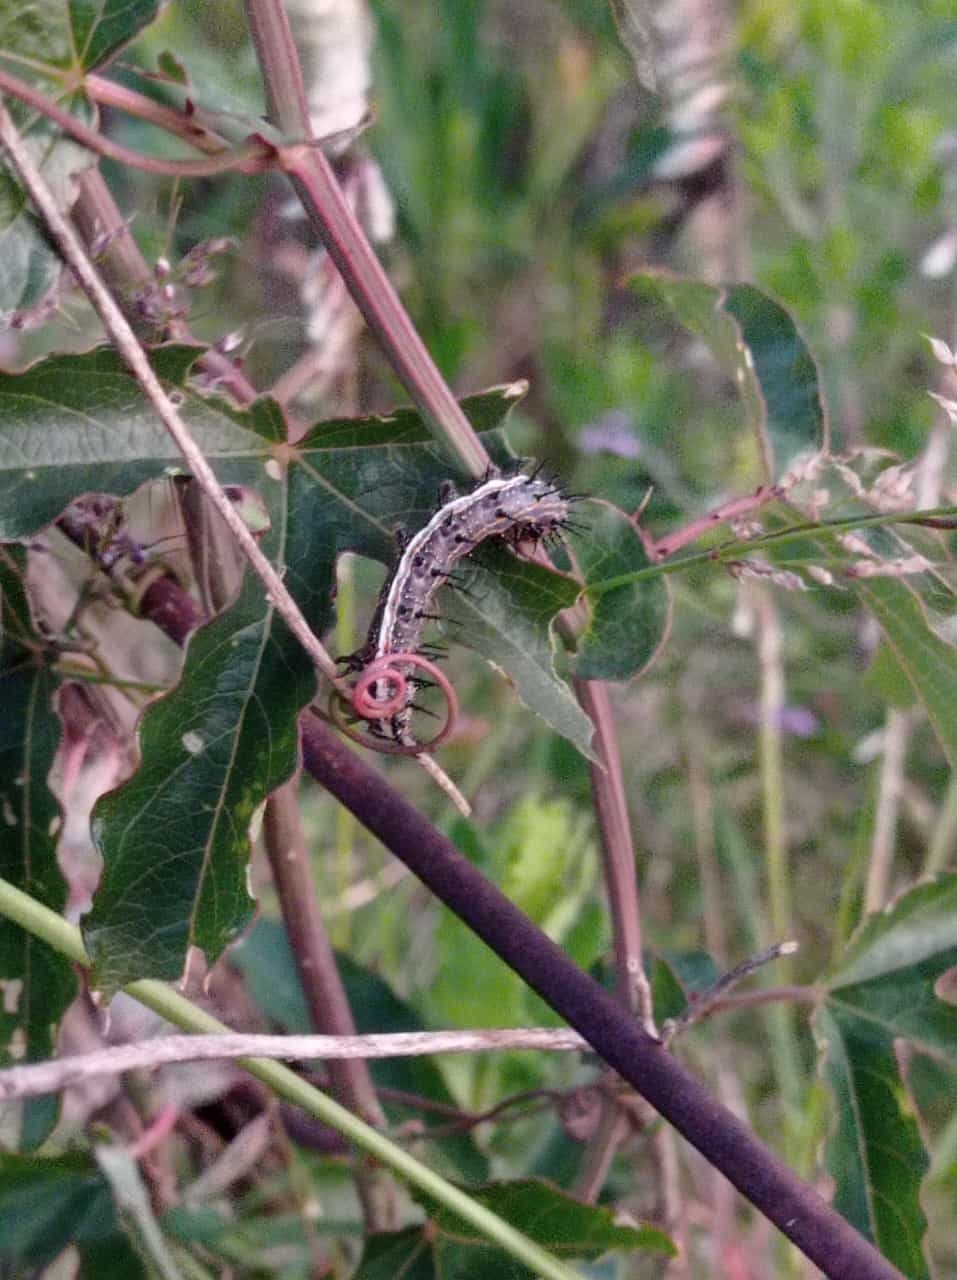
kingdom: Animalia
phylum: Arthropoda
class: Insecta
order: Lepidoptera
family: Nymphalidae
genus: Dione
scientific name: Dione vanillae
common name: Gulf fritillary
